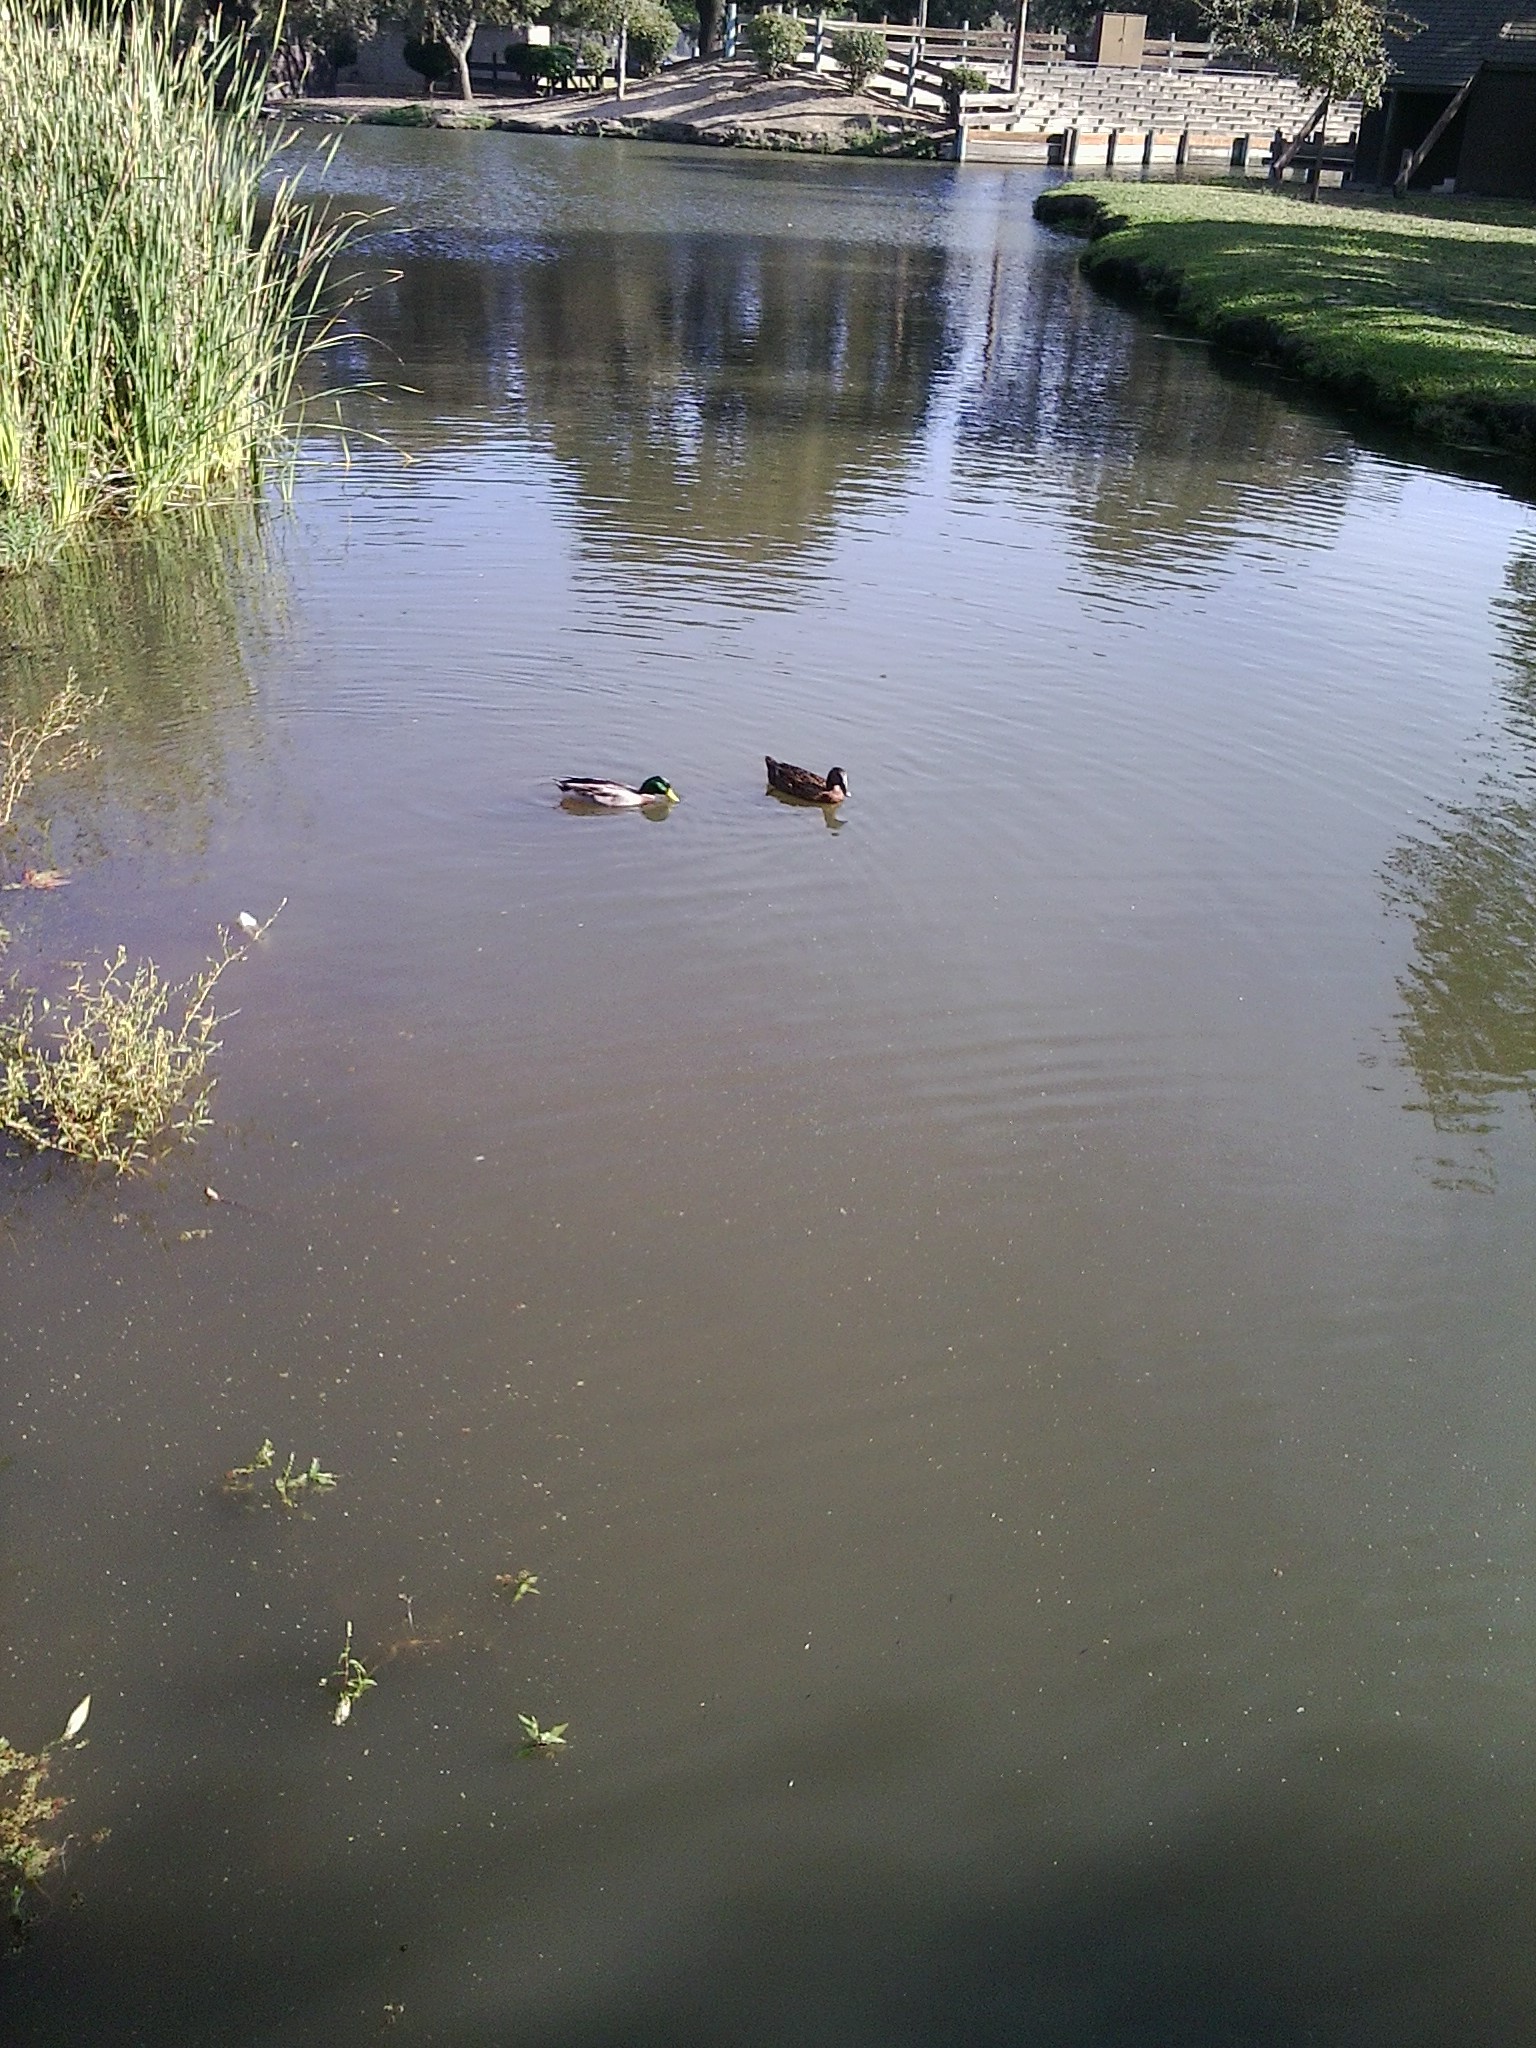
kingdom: Animalia
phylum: Chordata
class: Aves
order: Anseriformes
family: Anatidae
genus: Anas
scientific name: Anas platyrhynchos
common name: Mallard
